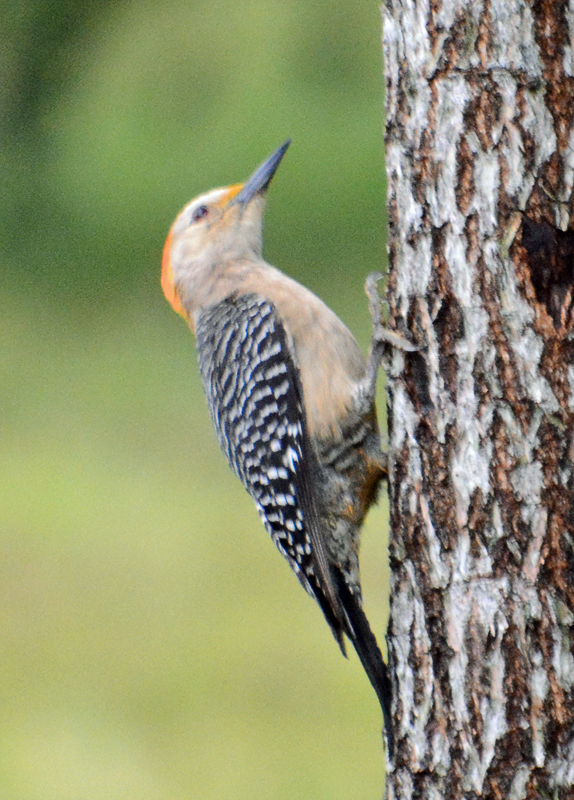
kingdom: Animalia
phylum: Chordata
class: Aves
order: Piciformes
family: Picidae
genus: Melanerpes
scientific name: Melanerpes aurifrons
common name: Golden-fronted woodpecker
